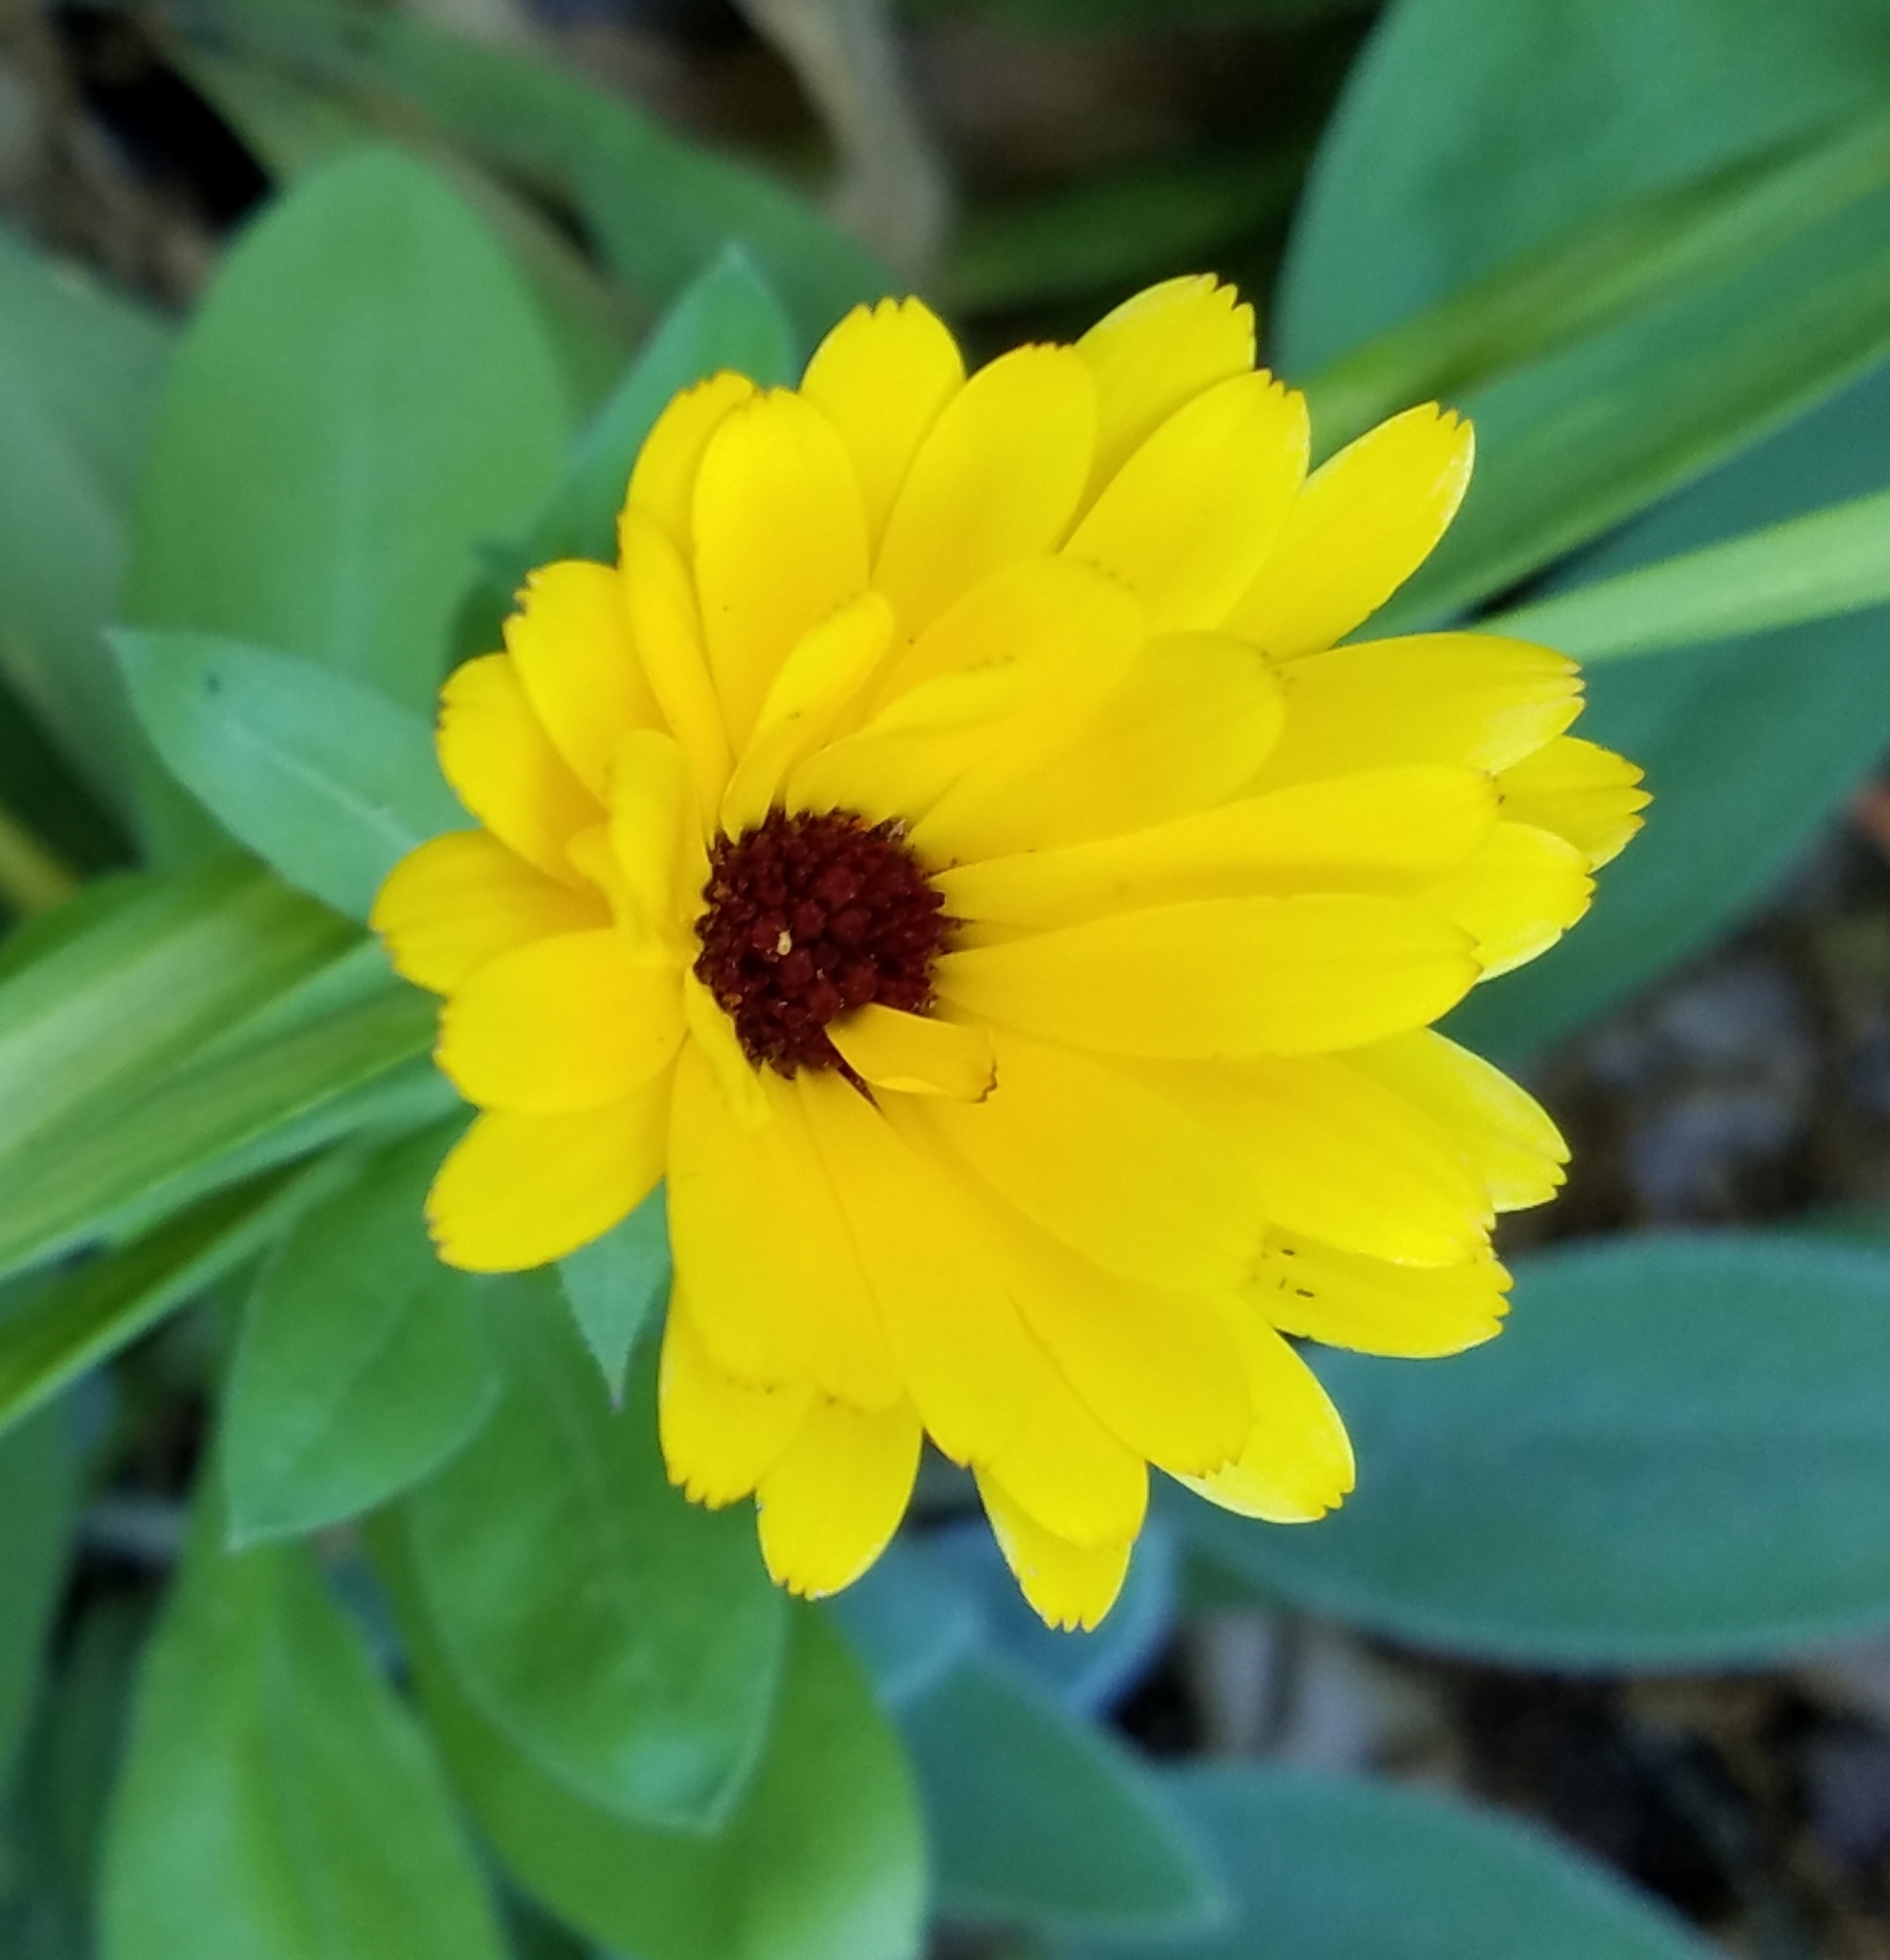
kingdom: Plantae
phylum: Tracheophyta
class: Magnoliopsida
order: Asterales
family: Asteraceae
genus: Calendula
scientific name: Calendula officinalis
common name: Pot marigold
